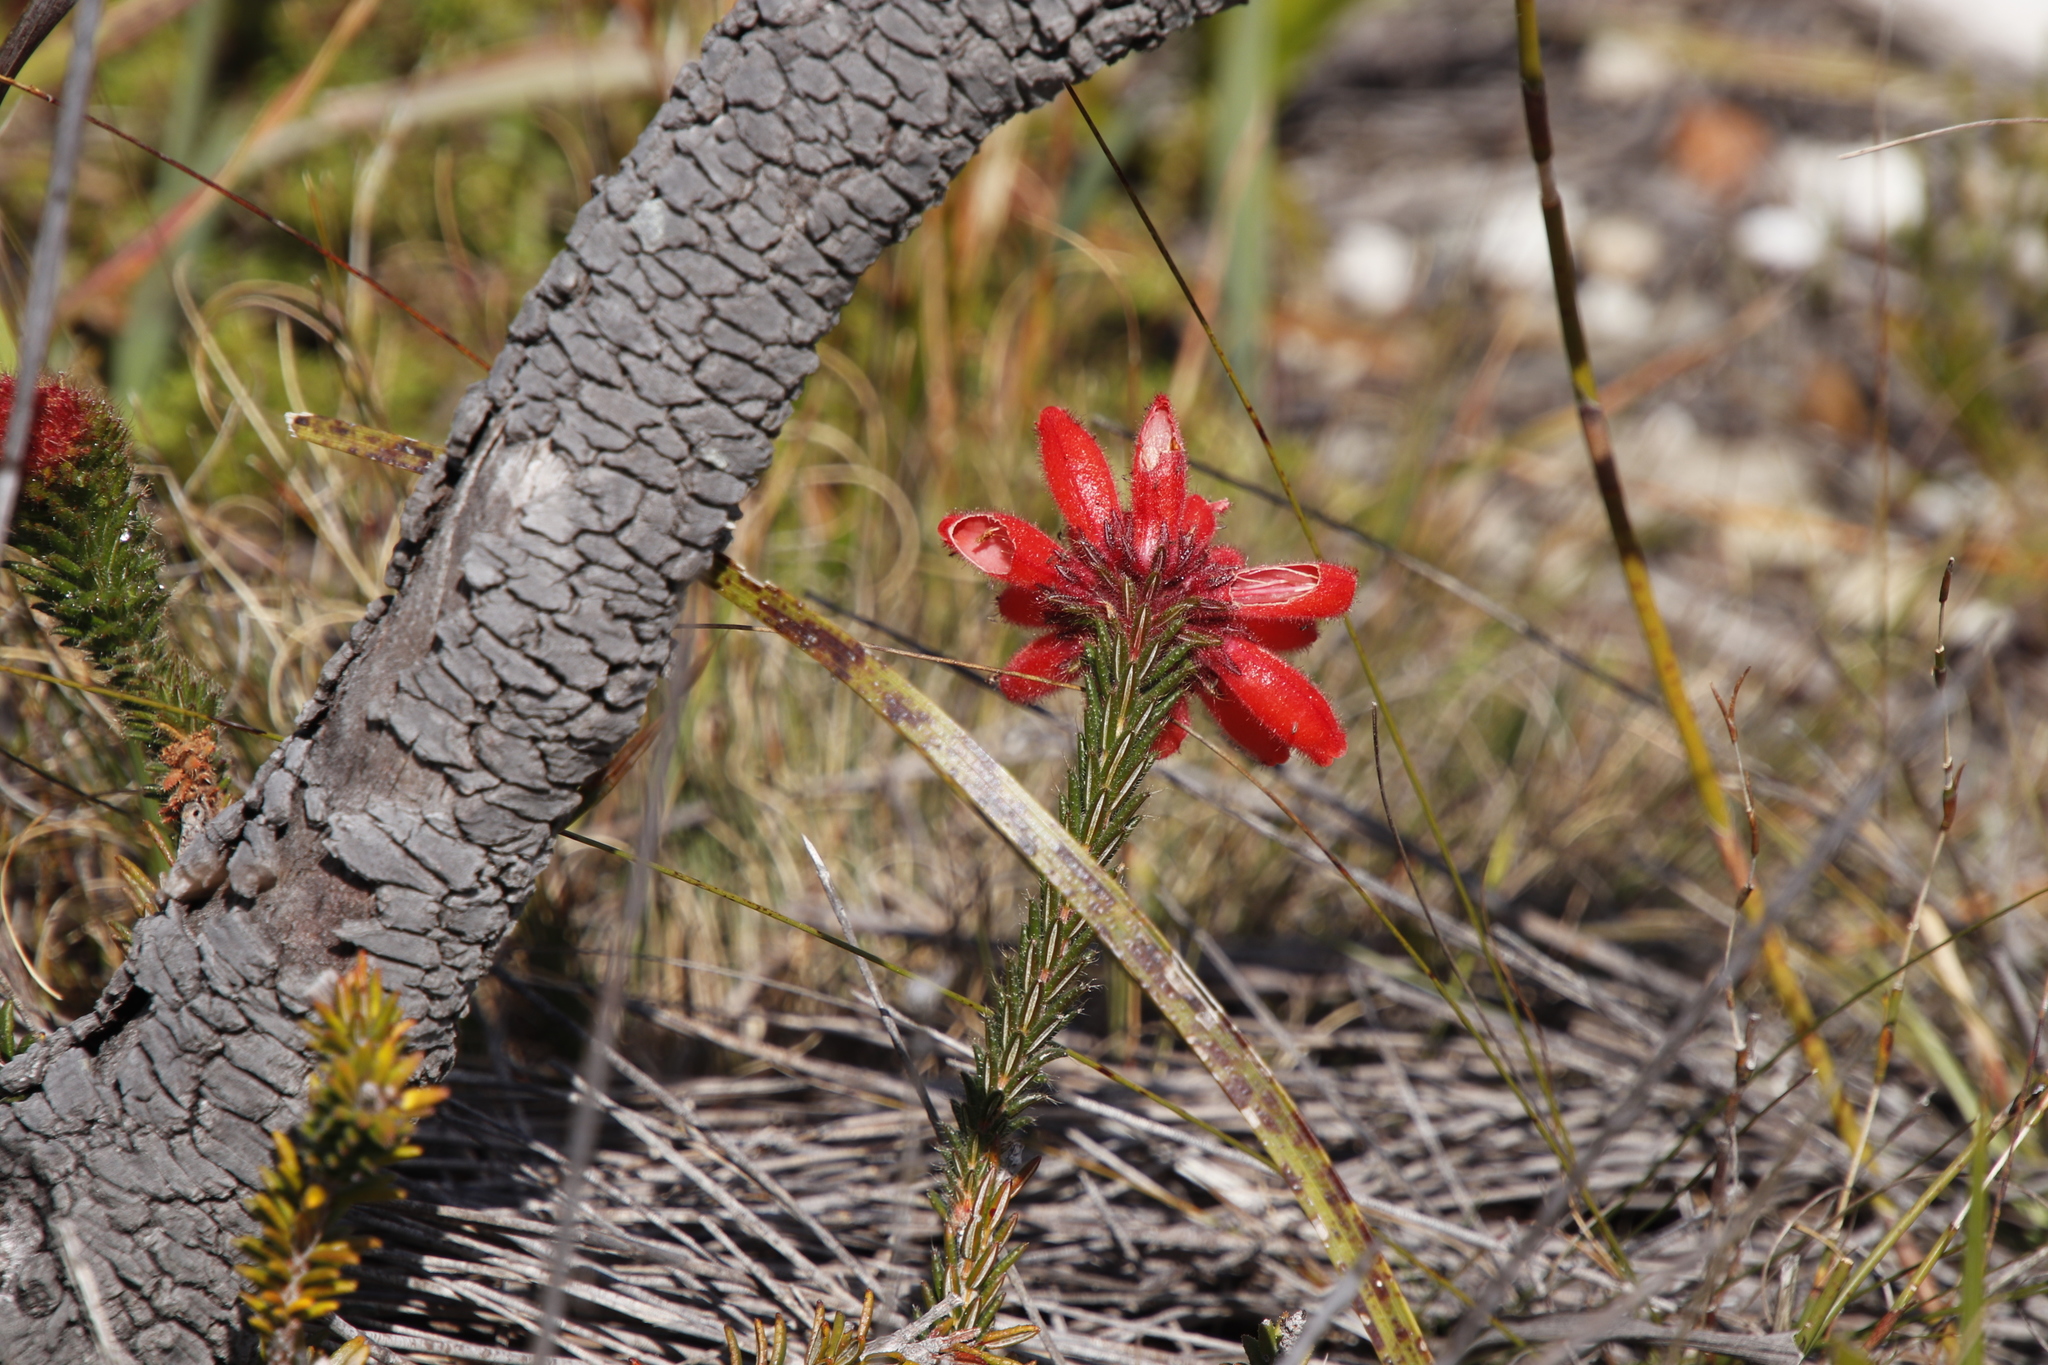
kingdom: Plantae
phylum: Tracheophyta
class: Magnoliopsida
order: Ericales
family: Ericaceae
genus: Erica
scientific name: Erica cerinthoides
